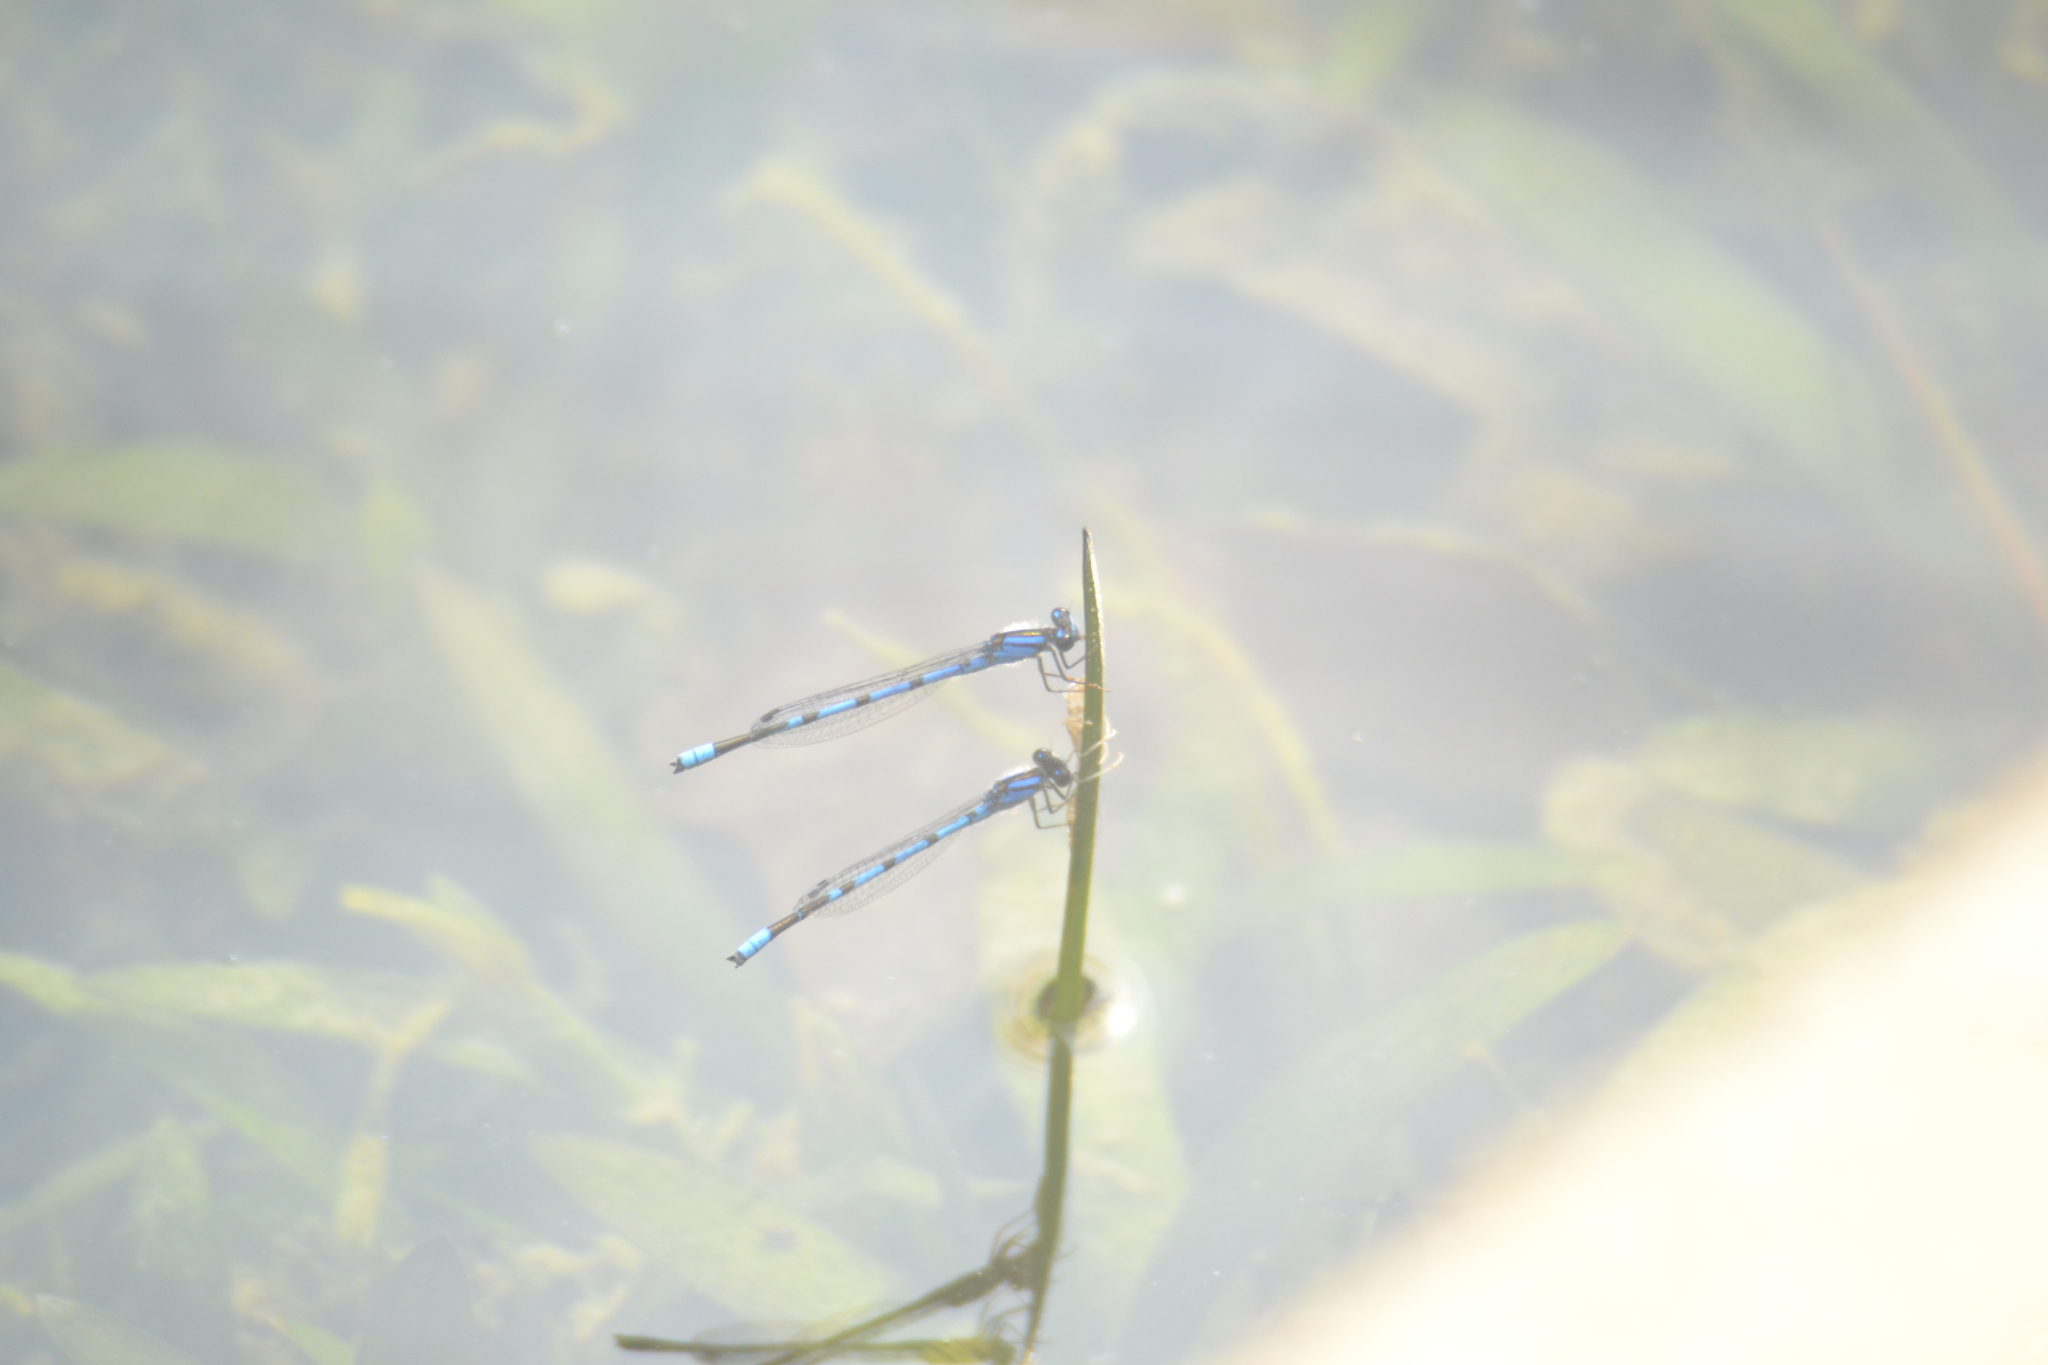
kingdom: Animalia
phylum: Arthropoda
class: Insecta
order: Odonata
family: Coenagrionidae
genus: Enallagma
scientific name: Enallagma civile
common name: Damselfly
